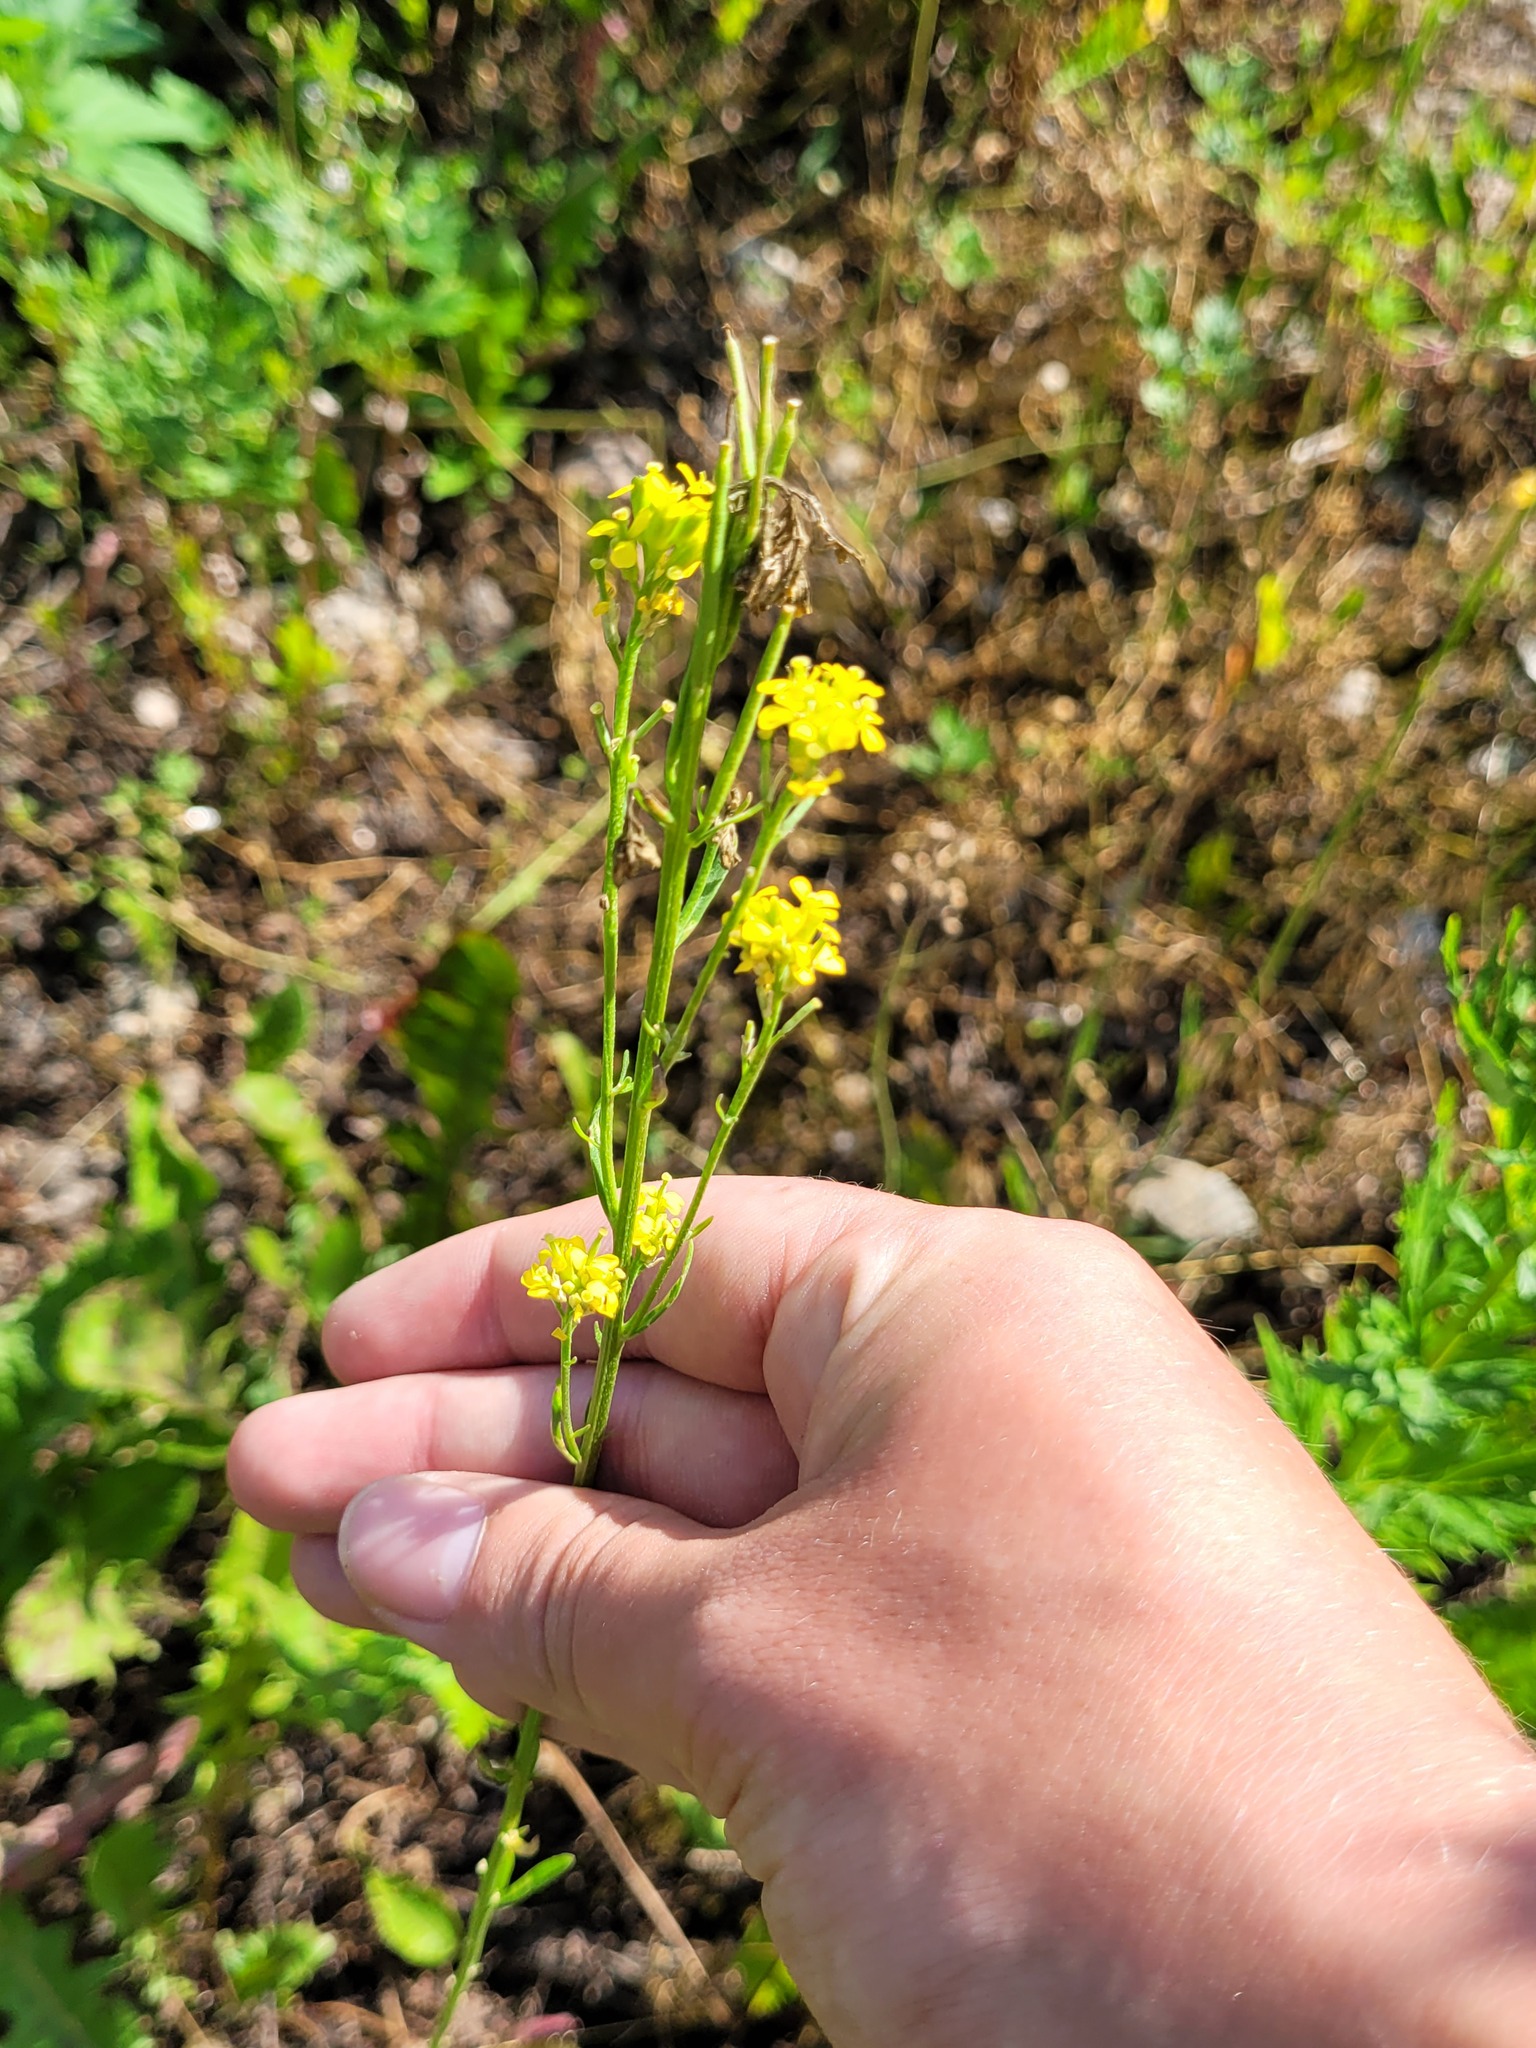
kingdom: Plantae
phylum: Tracheophyta
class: Magnoliopsida
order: Brassicales
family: Brassicaceae
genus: Erysimum
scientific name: Erysimum hieraciifolium
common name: European wallflower
